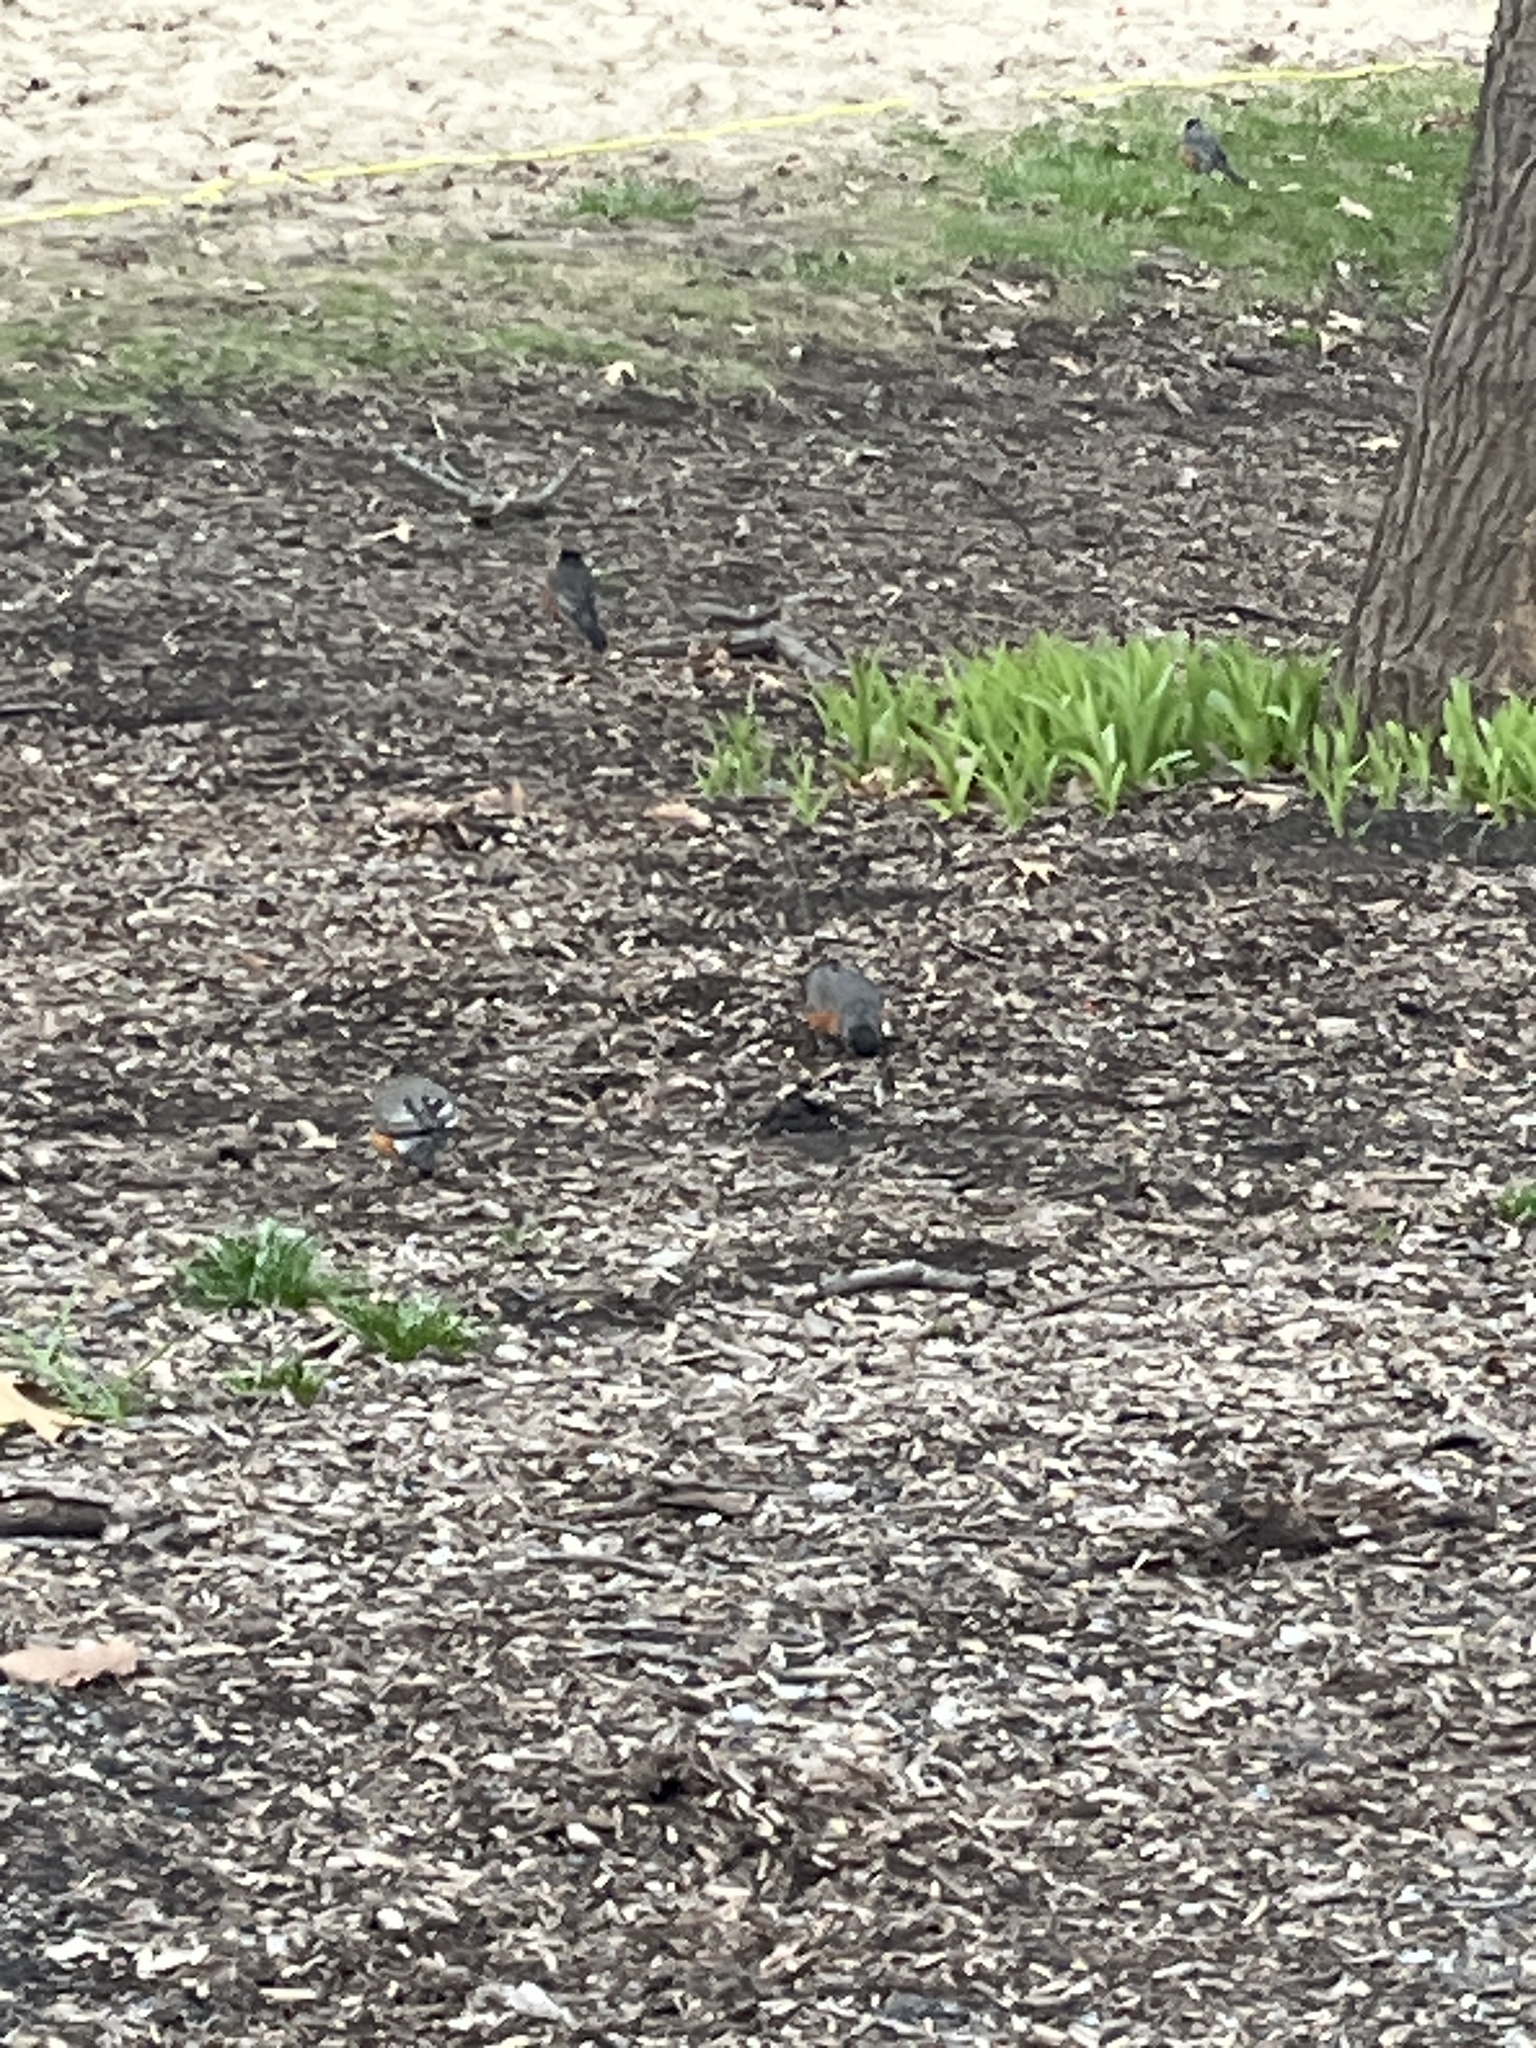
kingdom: Animalia
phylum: Chordata
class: Aves
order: Passeriformes
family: Turdidae
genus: Turdus
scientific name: Turdus migratorius
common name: American robin
